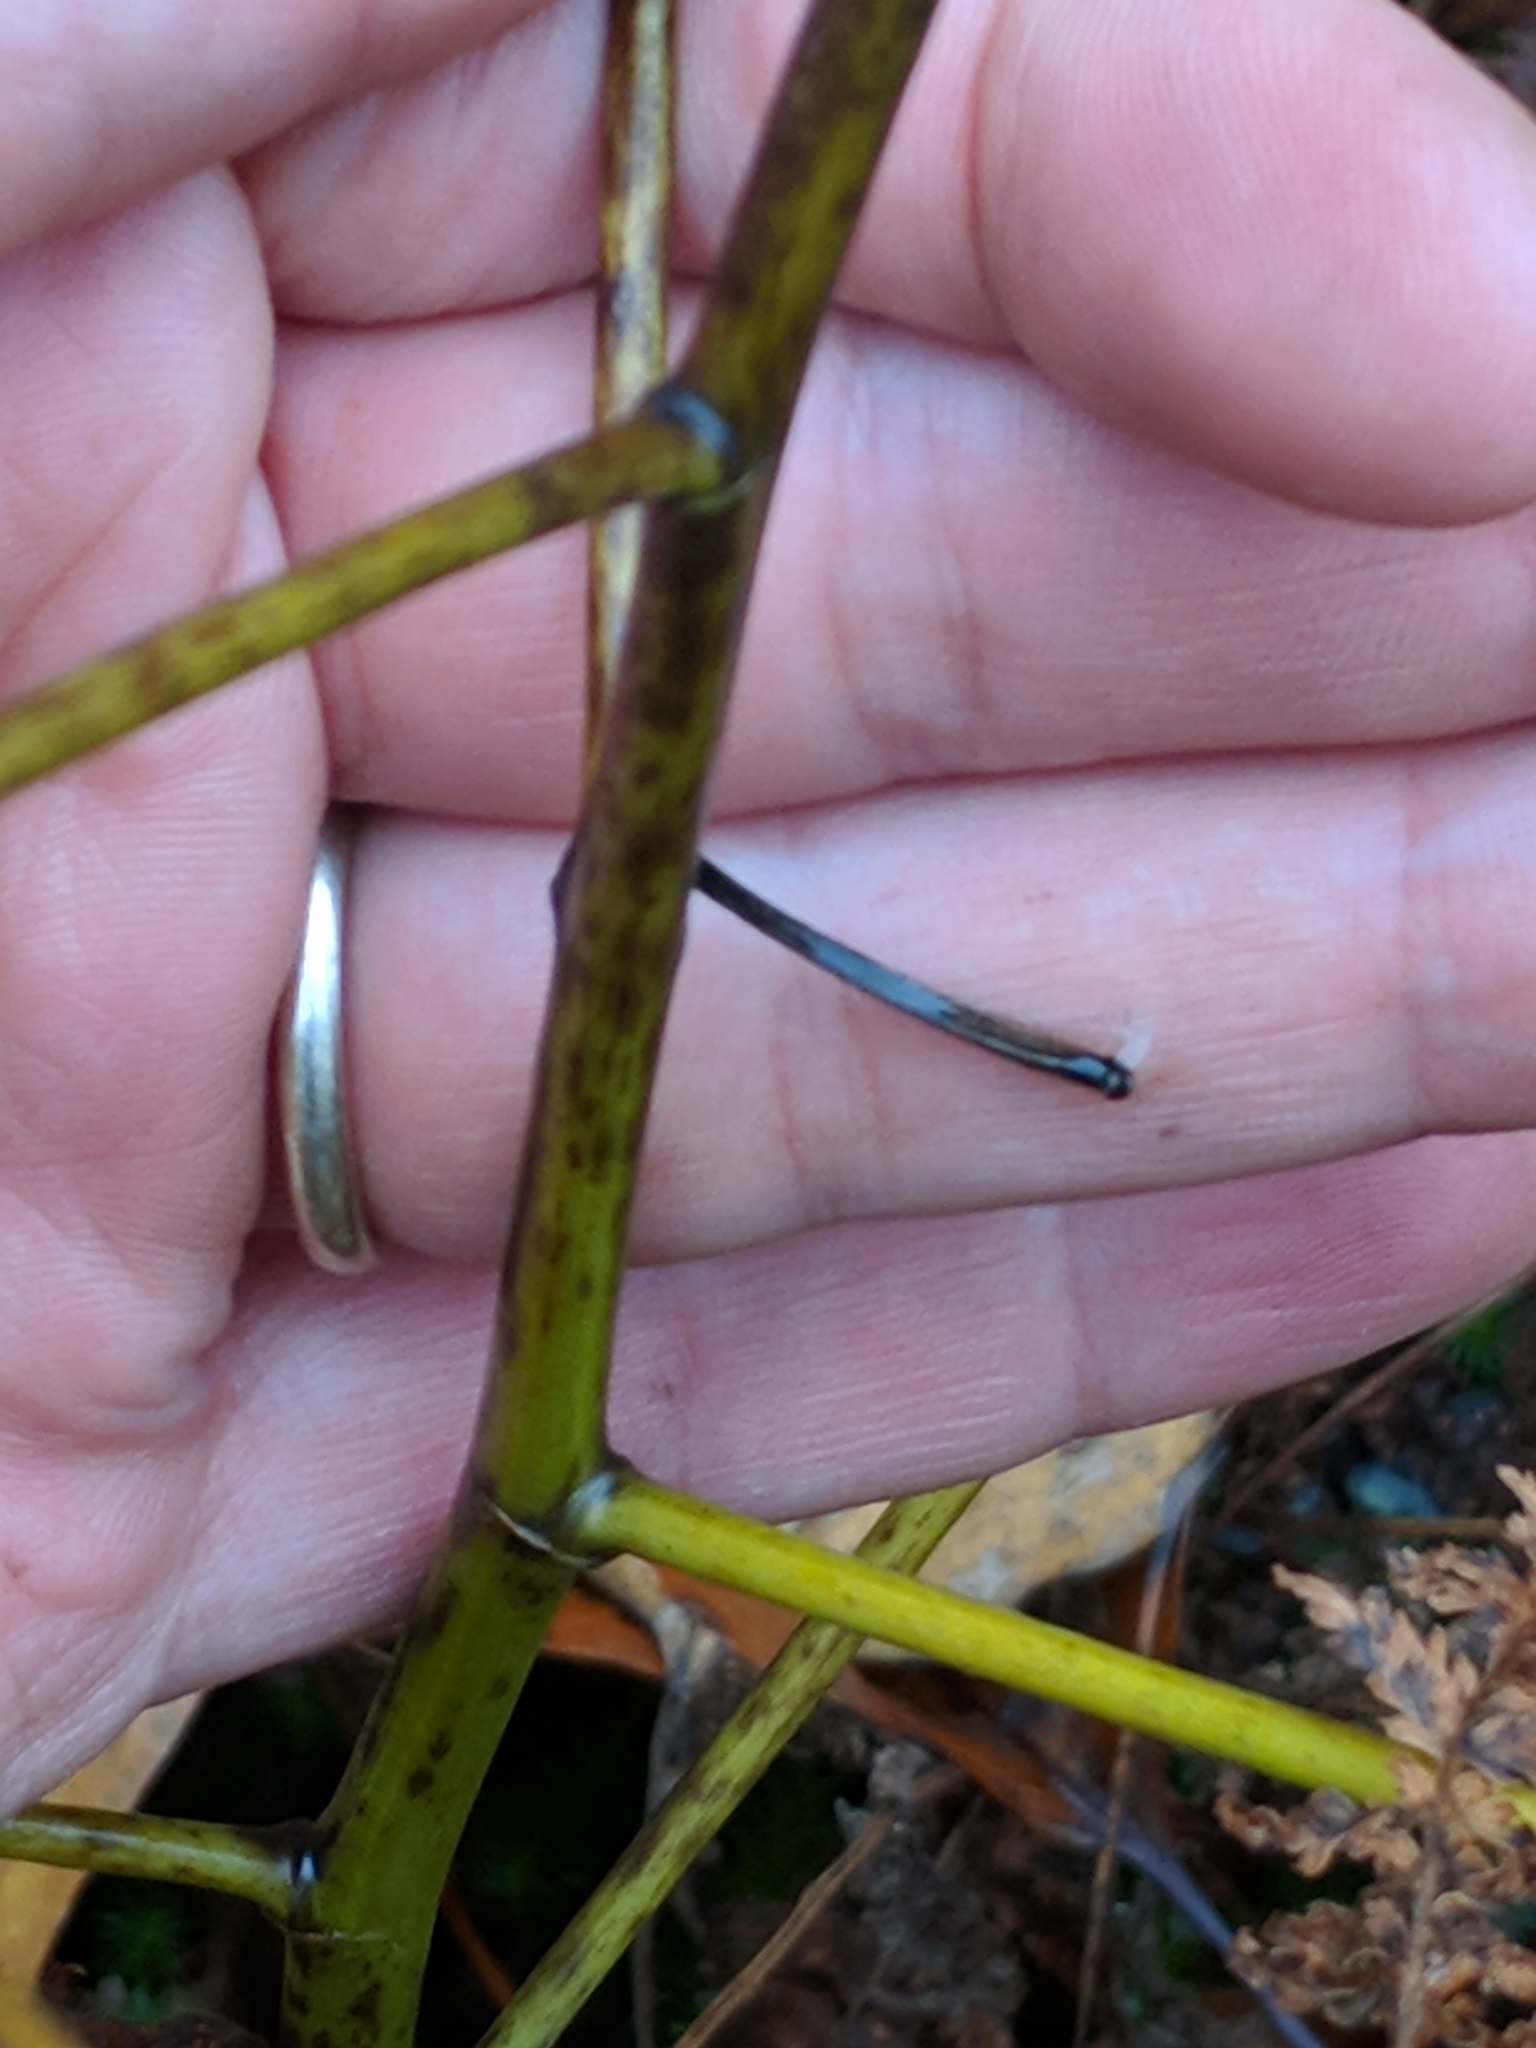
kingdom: Plantae
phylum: Tracheophyta
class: Magnoliopsida
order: Fabales
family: Fabaceae
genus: Baptisia
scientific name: Baptisia tinctoria
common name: Wild indigo
